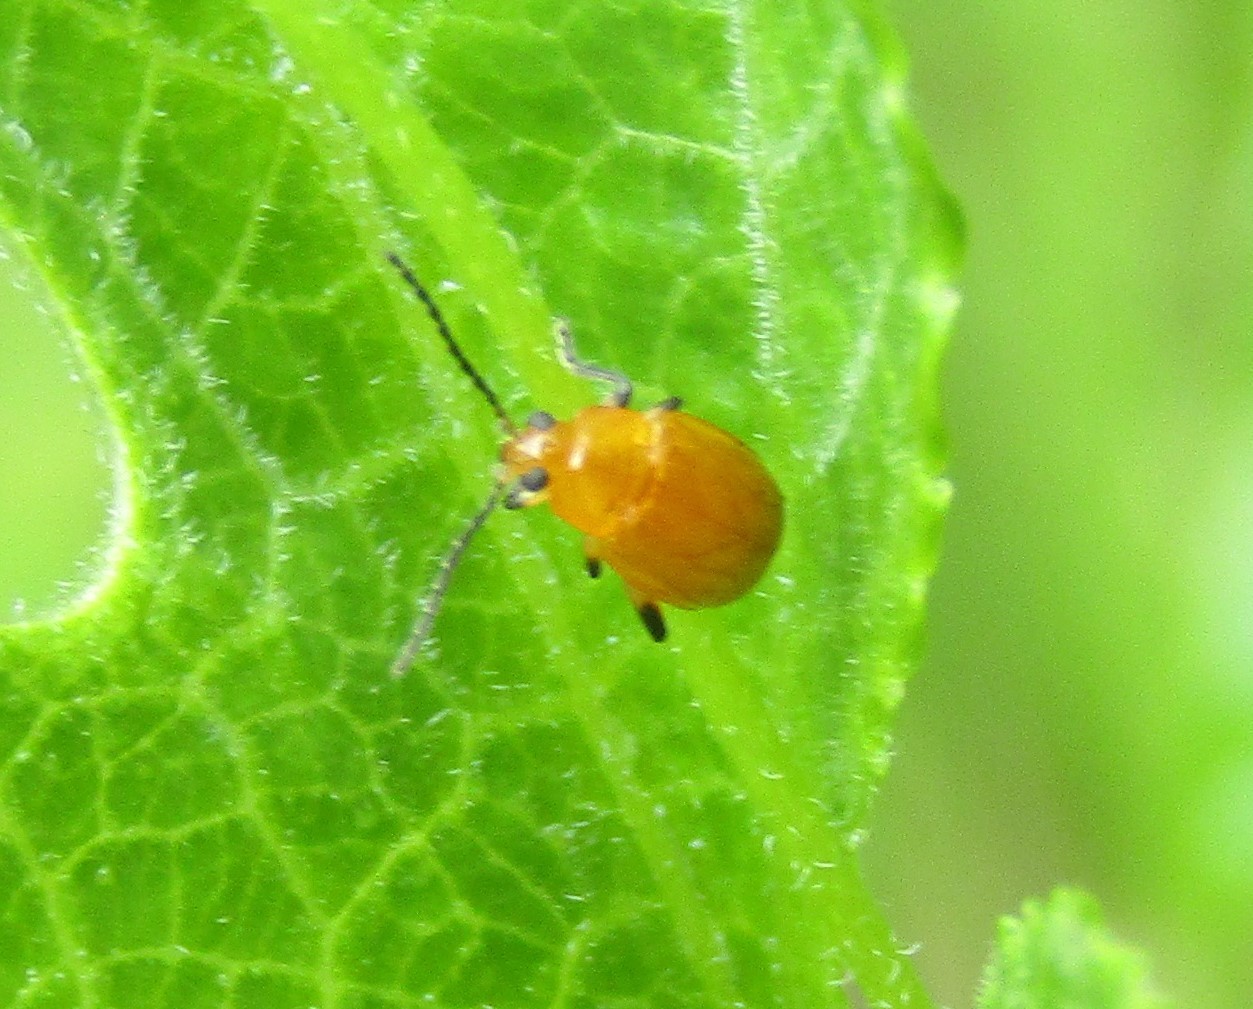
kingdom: Animalia
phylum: Arthropoda
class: Insecta
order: Coleoptera
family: Chrysomelidae
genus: Parchicola
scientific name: Parchicola tibialis
